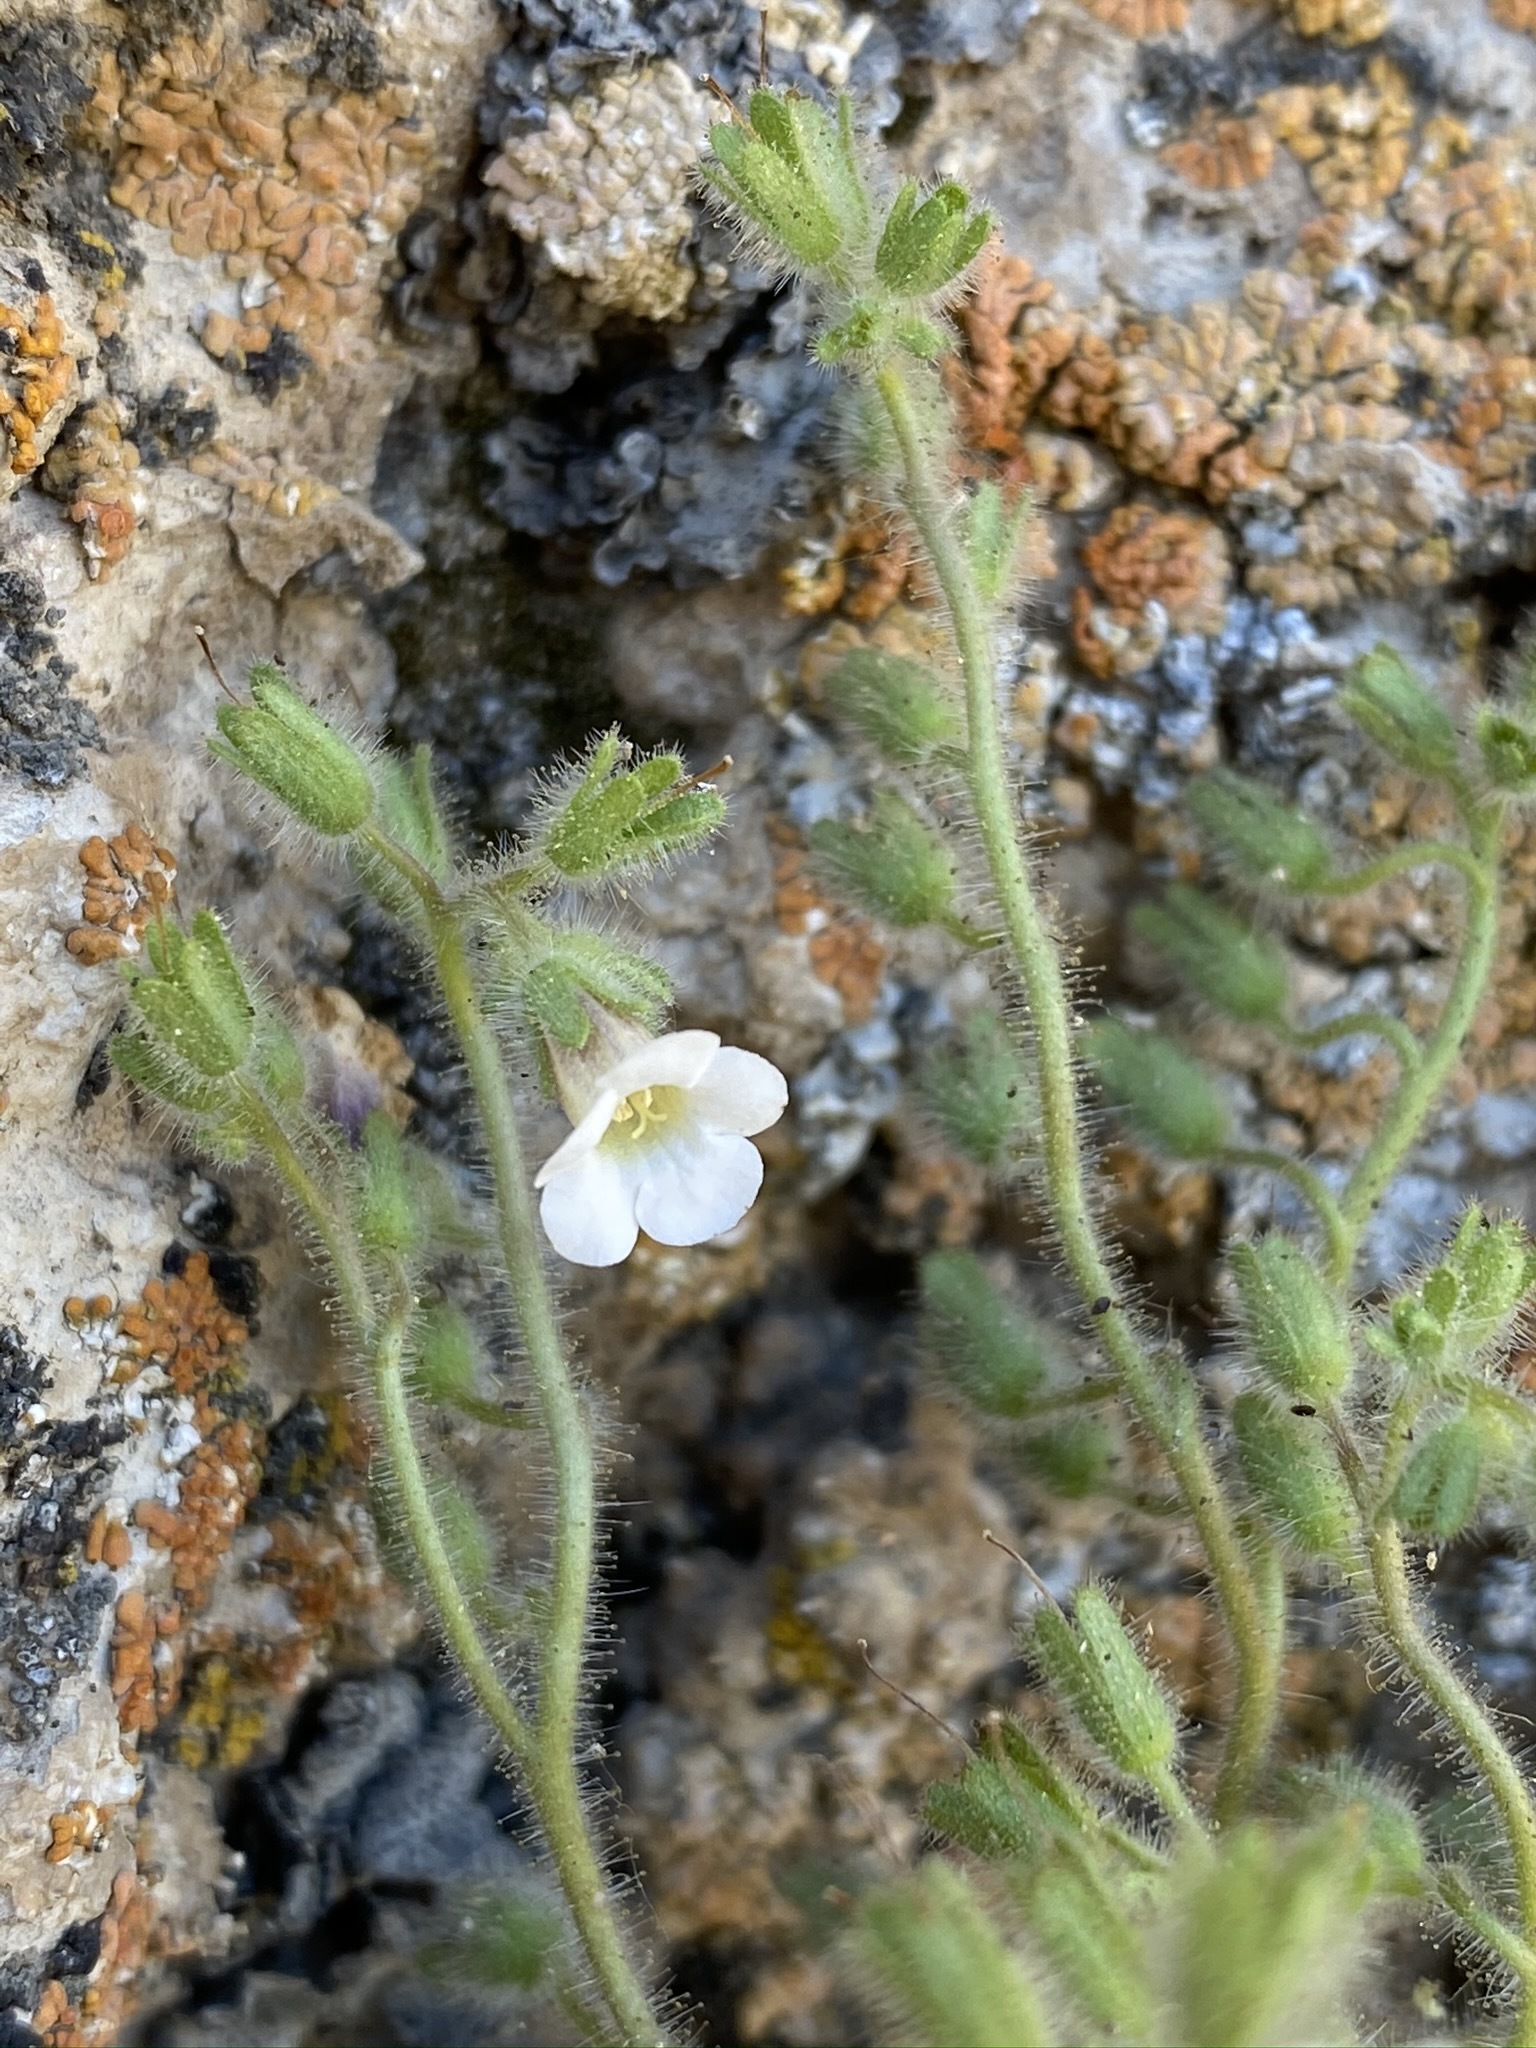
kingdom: Plantae
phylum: Tracheophyta
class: Magnoliopsida
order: Boraginales
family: Hydrophyllaceae
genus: Phacelia
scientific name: Phacelia perityloides
